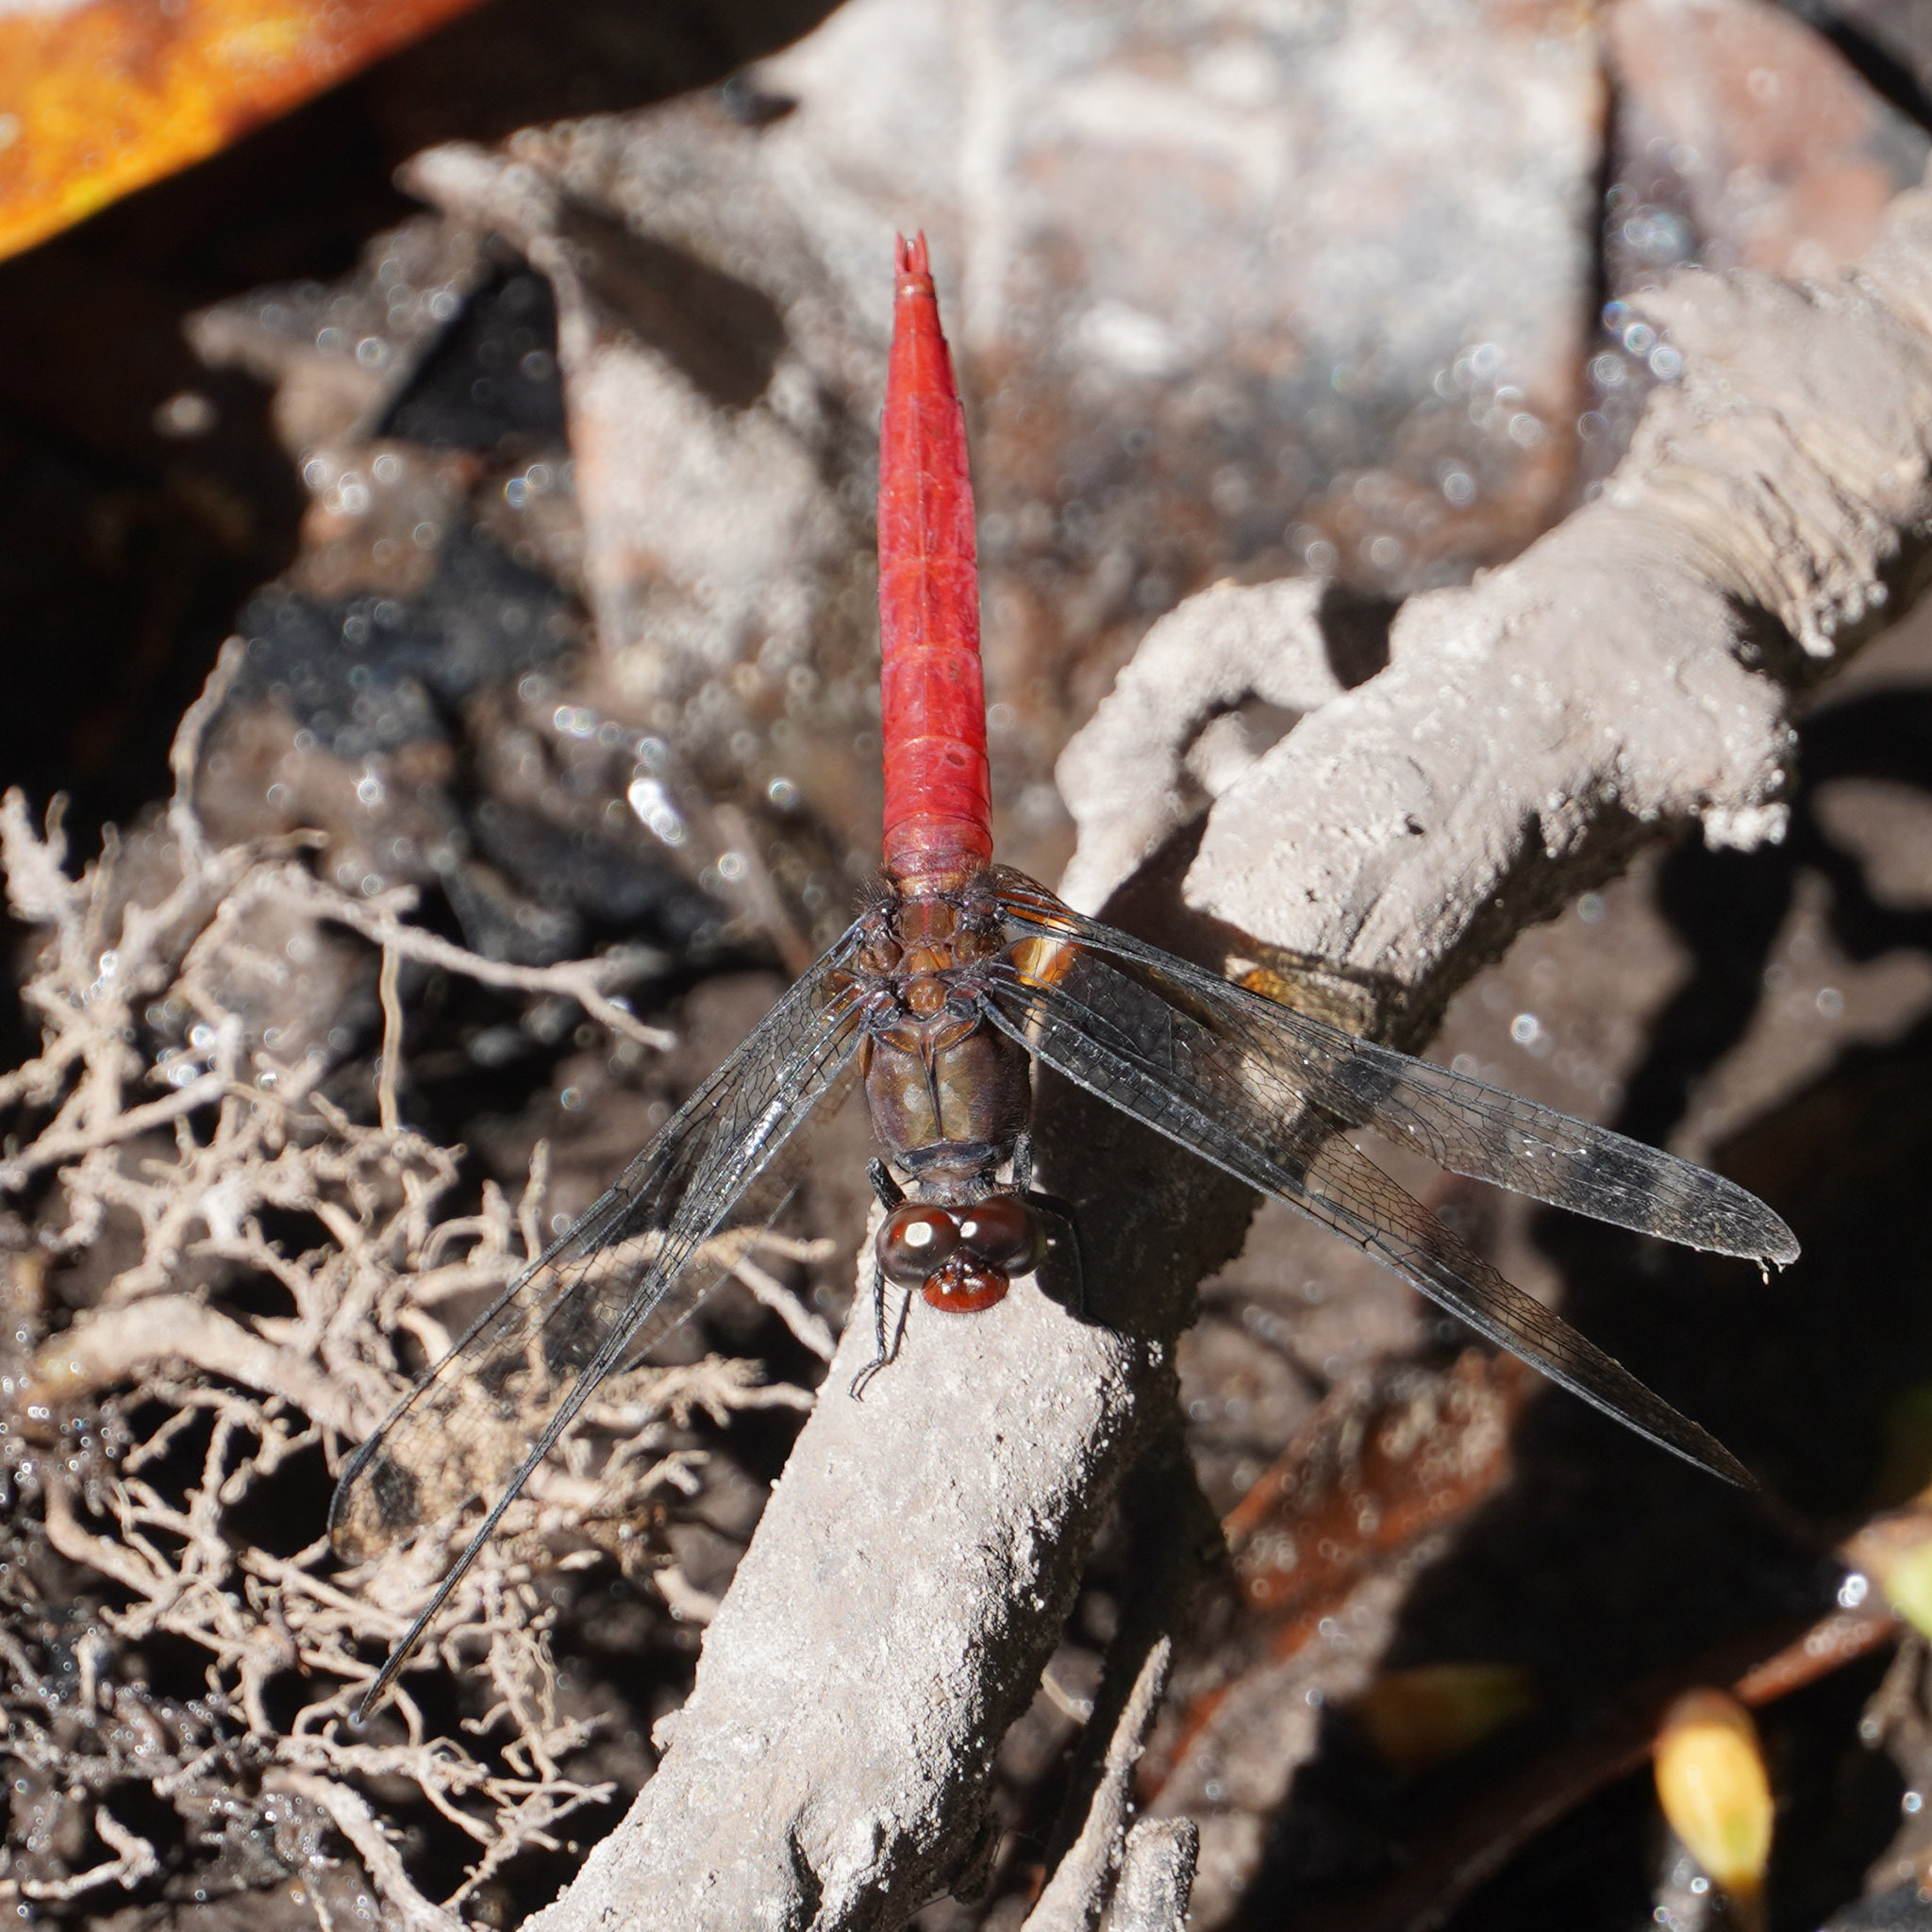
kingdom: Animalia
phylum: Arthropoda
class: Insecta
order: Odonata
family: Libellulidae
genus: Orthetrum
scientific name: Orthetrum chrysis
